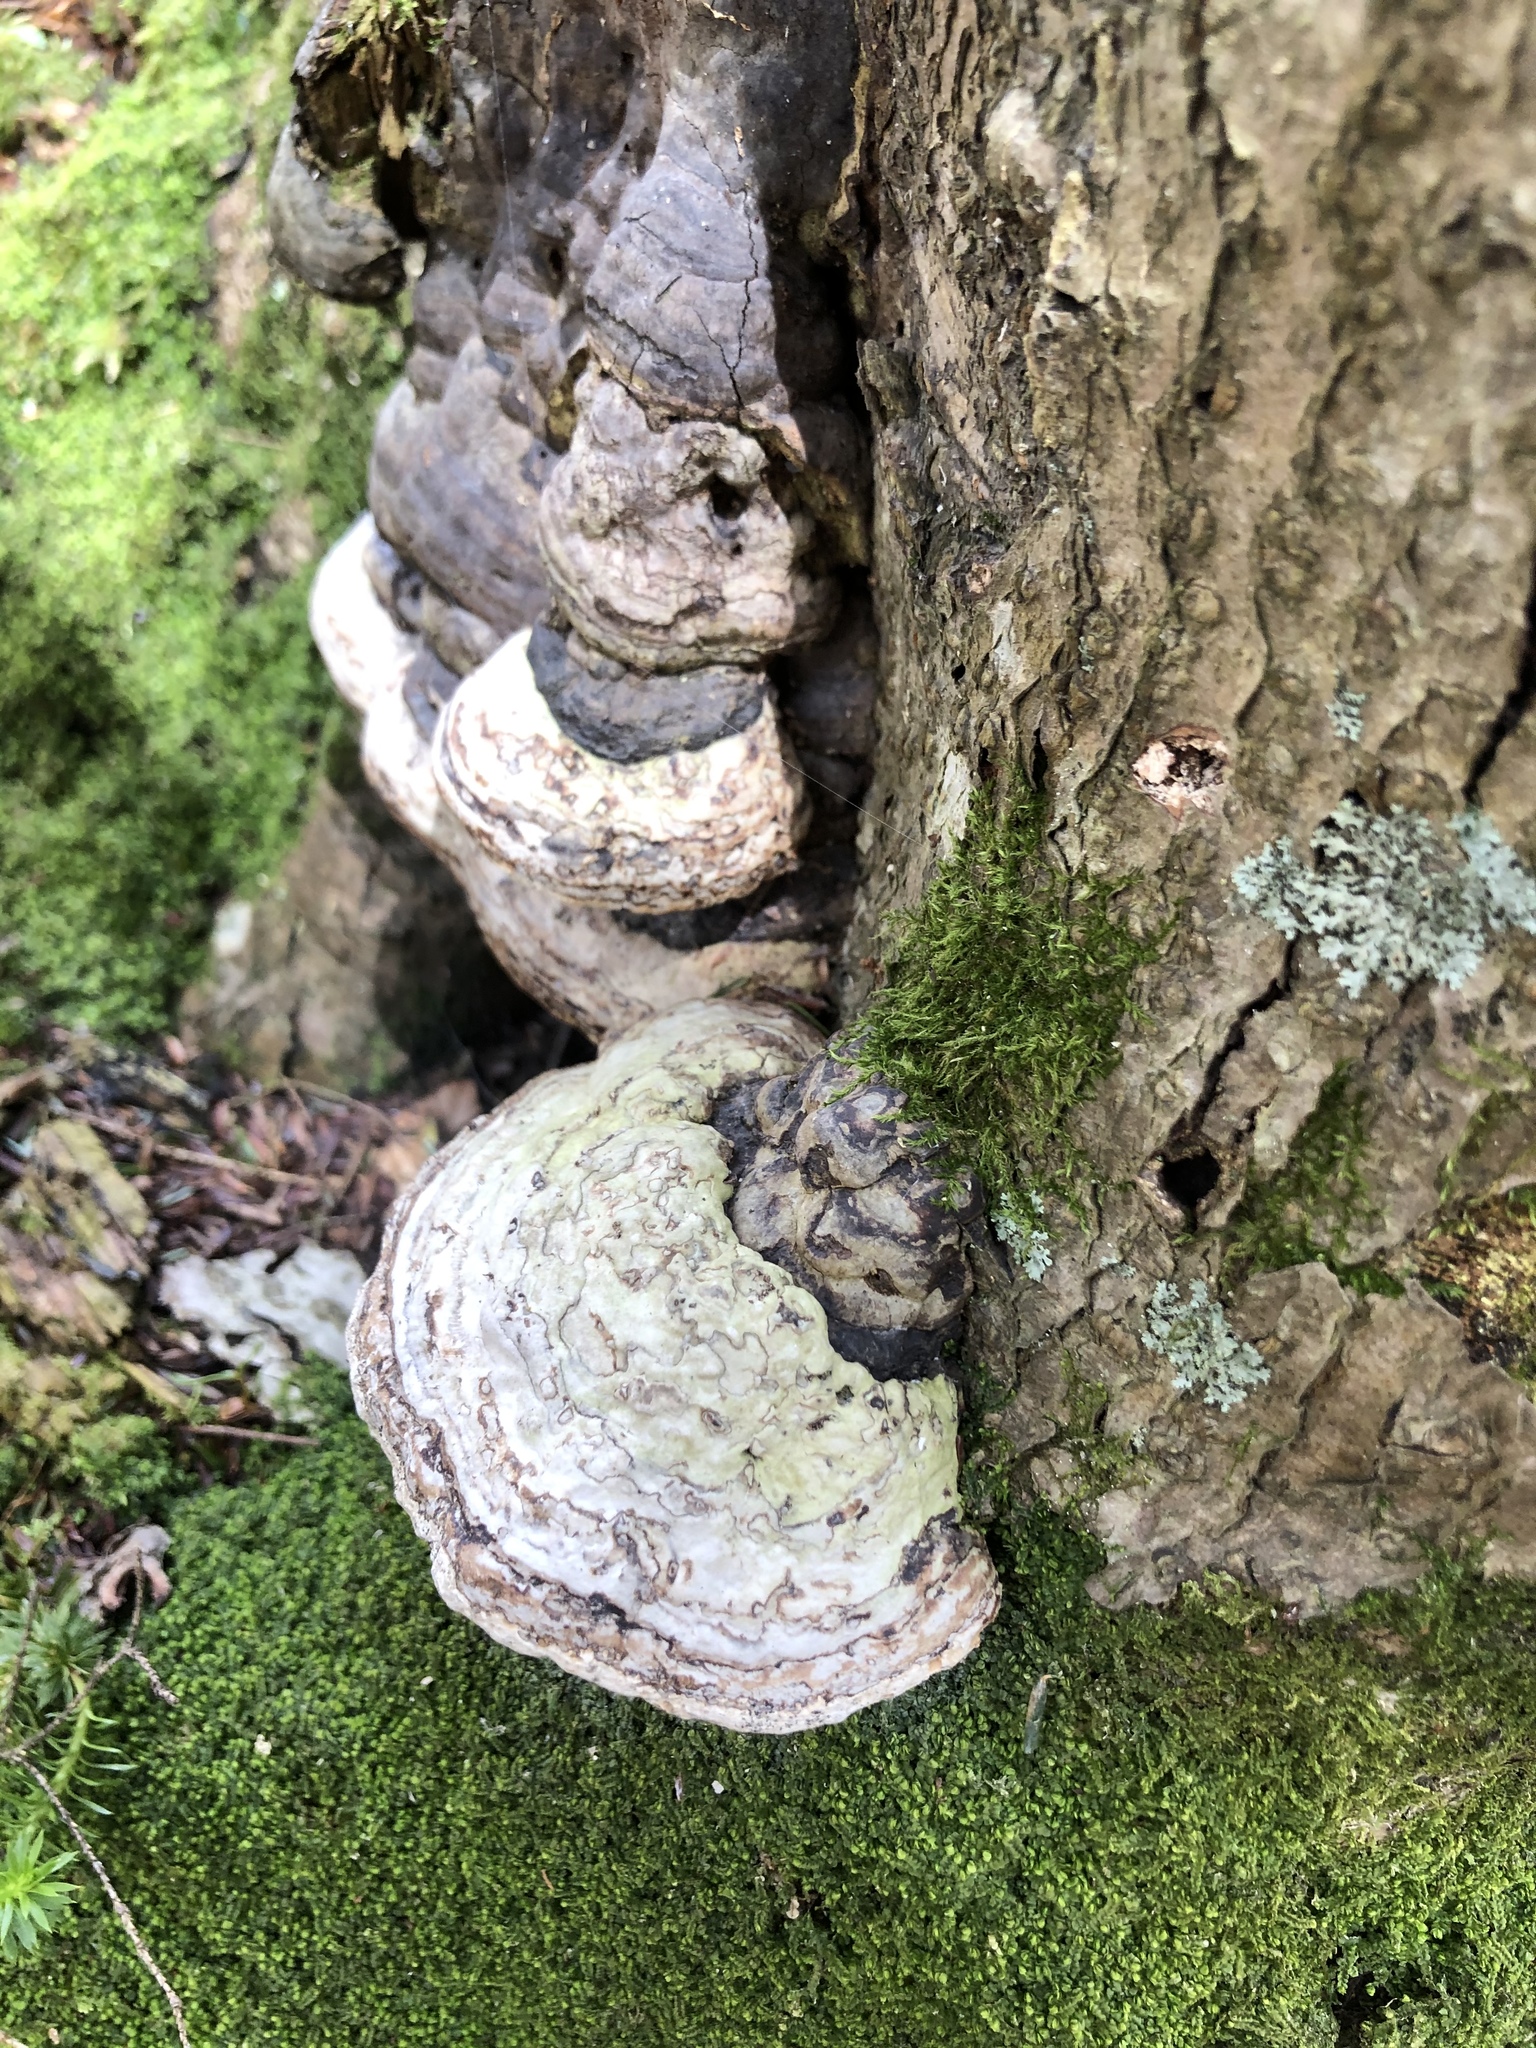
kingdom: Fungi
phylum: Basidiomycota
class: Agaricomycetes
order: Polyporales
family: Polyporaceae
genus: Fomes
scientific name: Fomes fomentarius
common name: Hoof fungus
